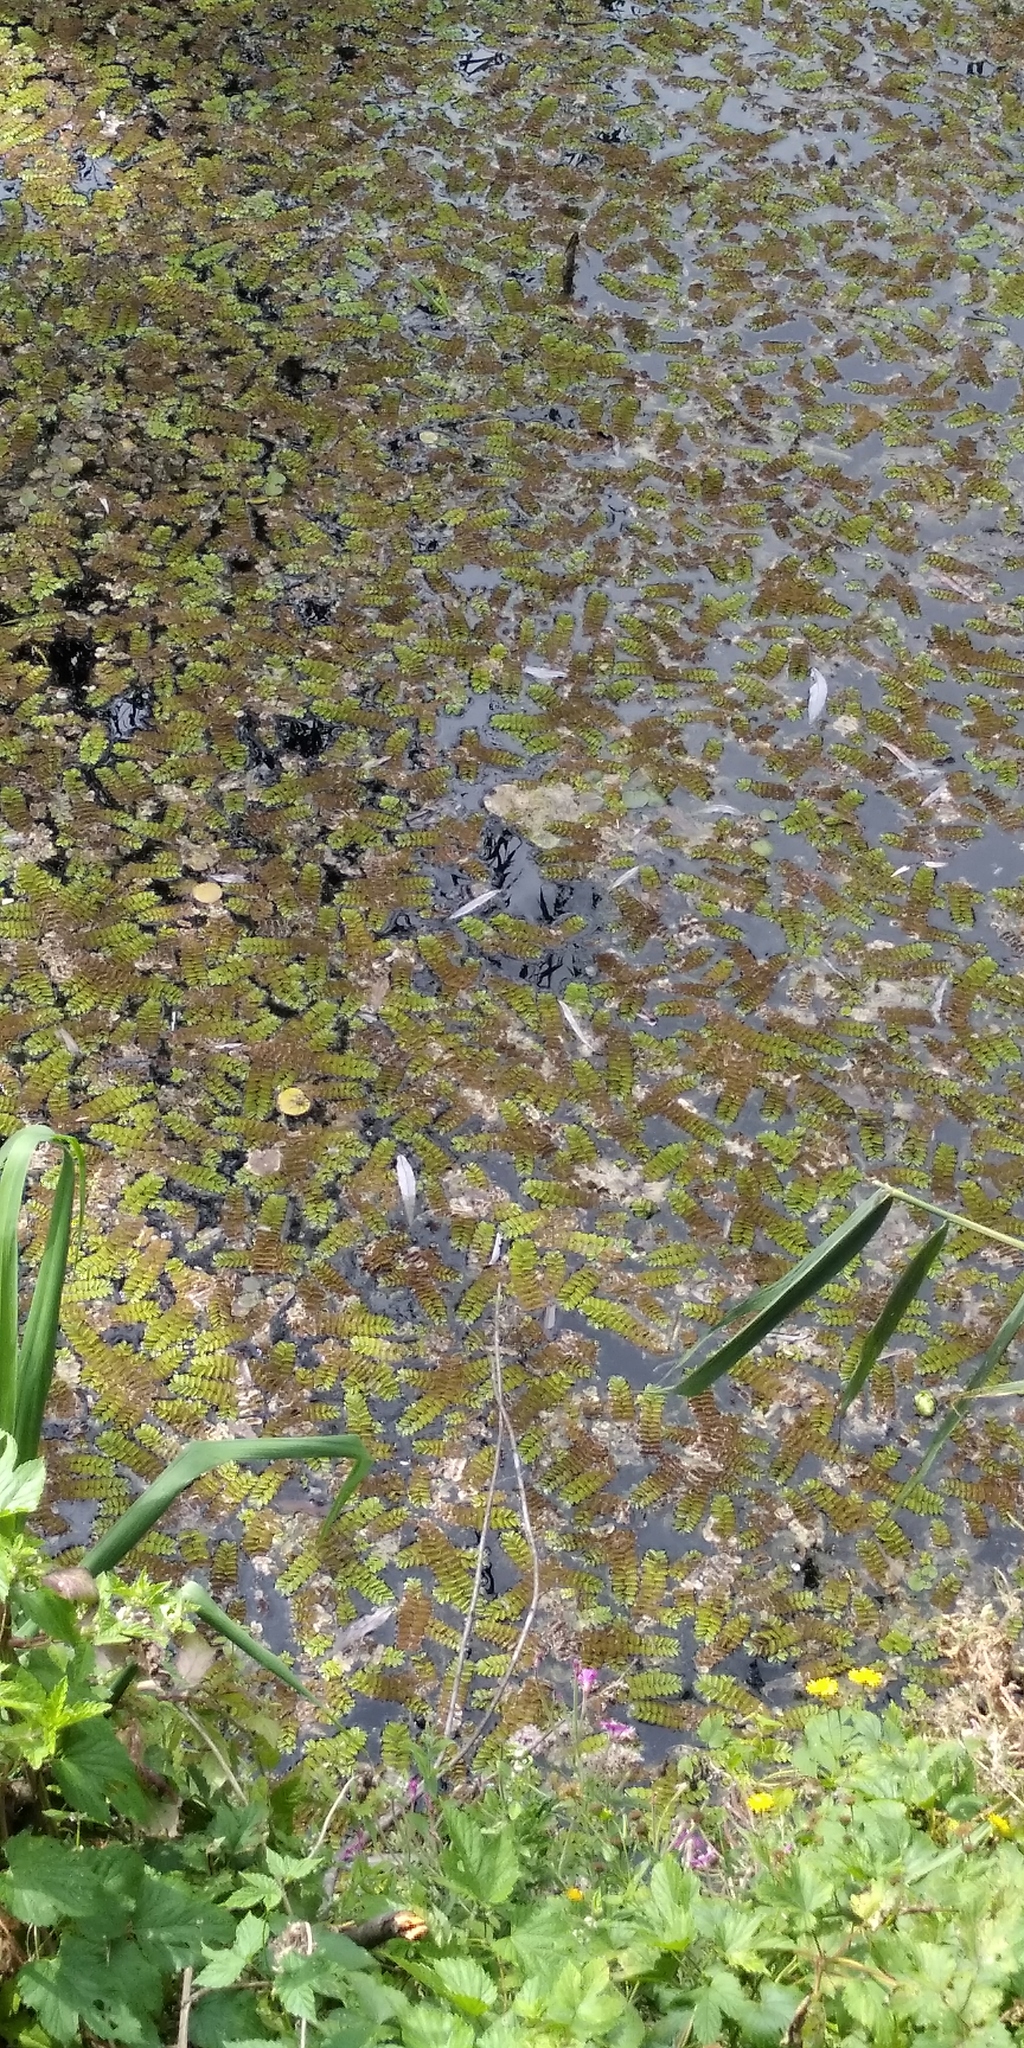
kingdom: Plantae
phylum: Tracheophyta
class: Polypodiopsida
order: Salviniales
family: Salviniaceae
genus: Salvinia
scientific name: Salvinia natans
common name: Floating fern
